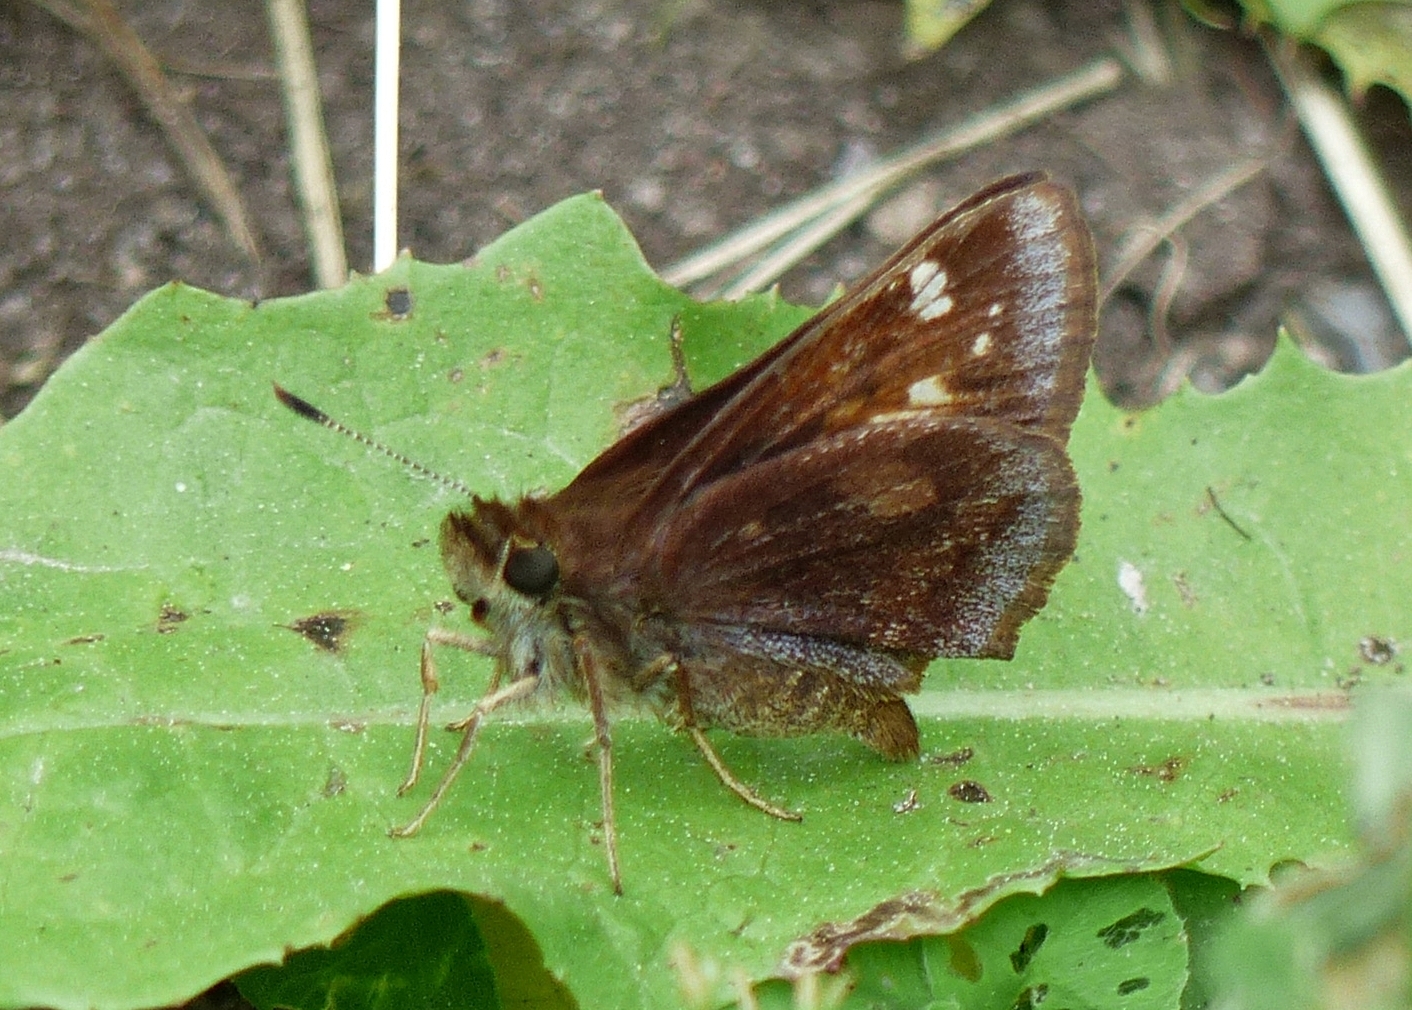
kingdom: Animalia
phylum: Arthropoda
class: Insecta
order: Lepidoptera
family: Hesperiidae
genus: Lon
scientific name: Lon hobomok
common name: Hobomok skipper
